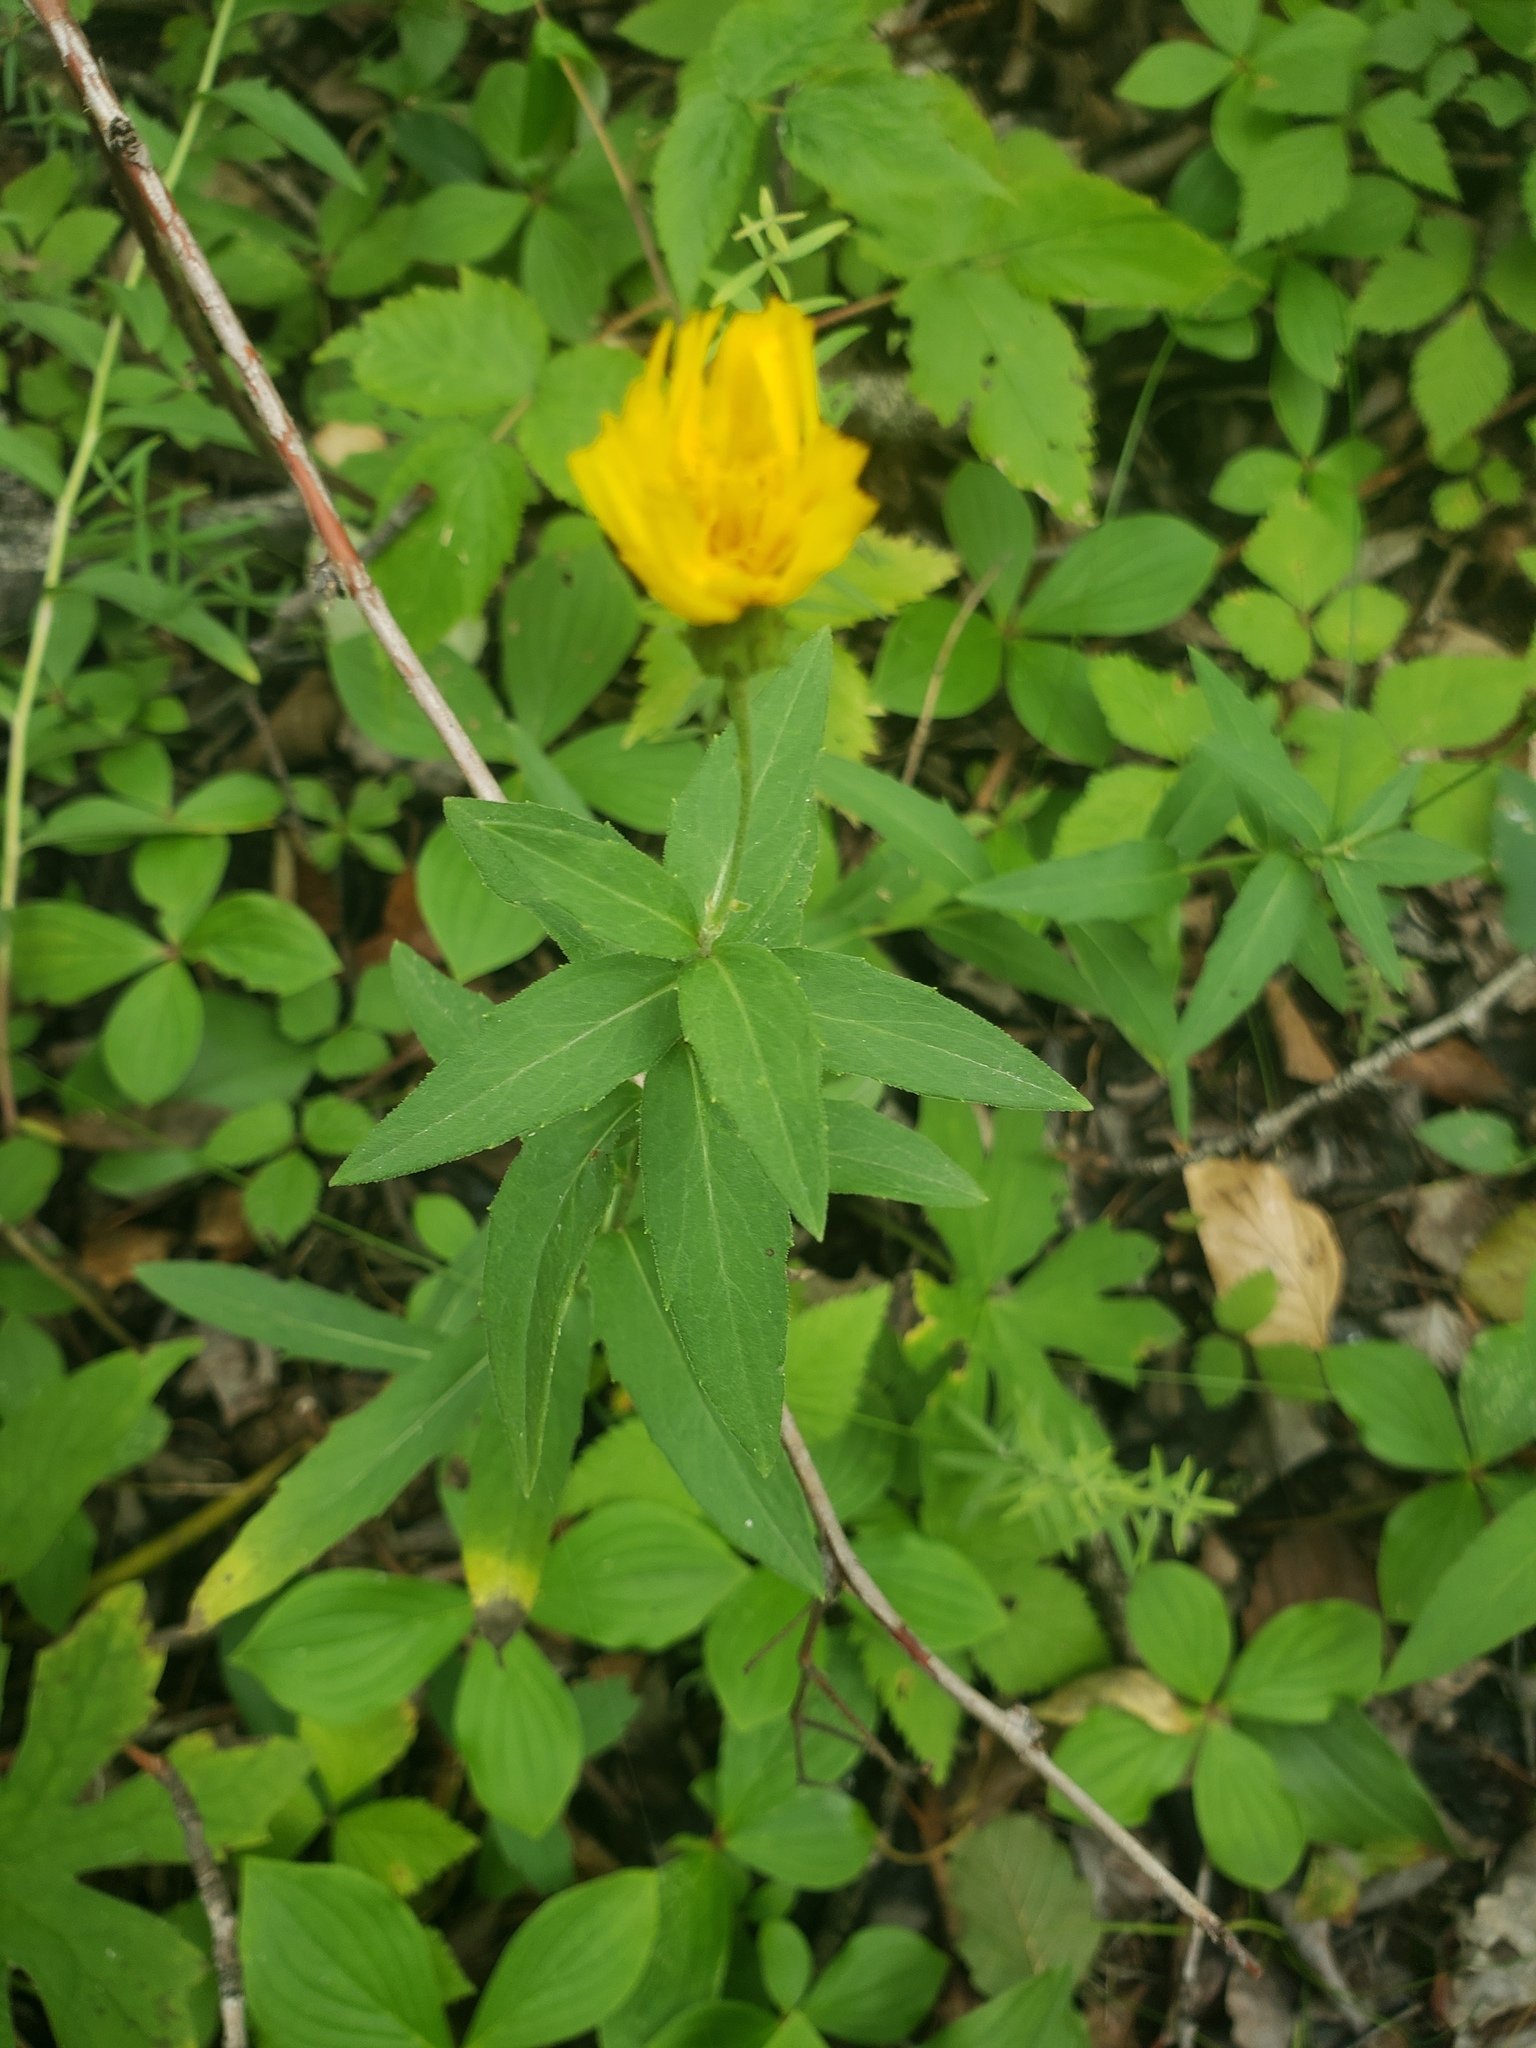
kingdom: Plantae
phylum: Tracheophyta
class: Magnoliopsida
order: Asterales
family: Asteraceae
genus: Hieracium
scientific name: Hieracium umbellatum
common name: Northern hawkweed
